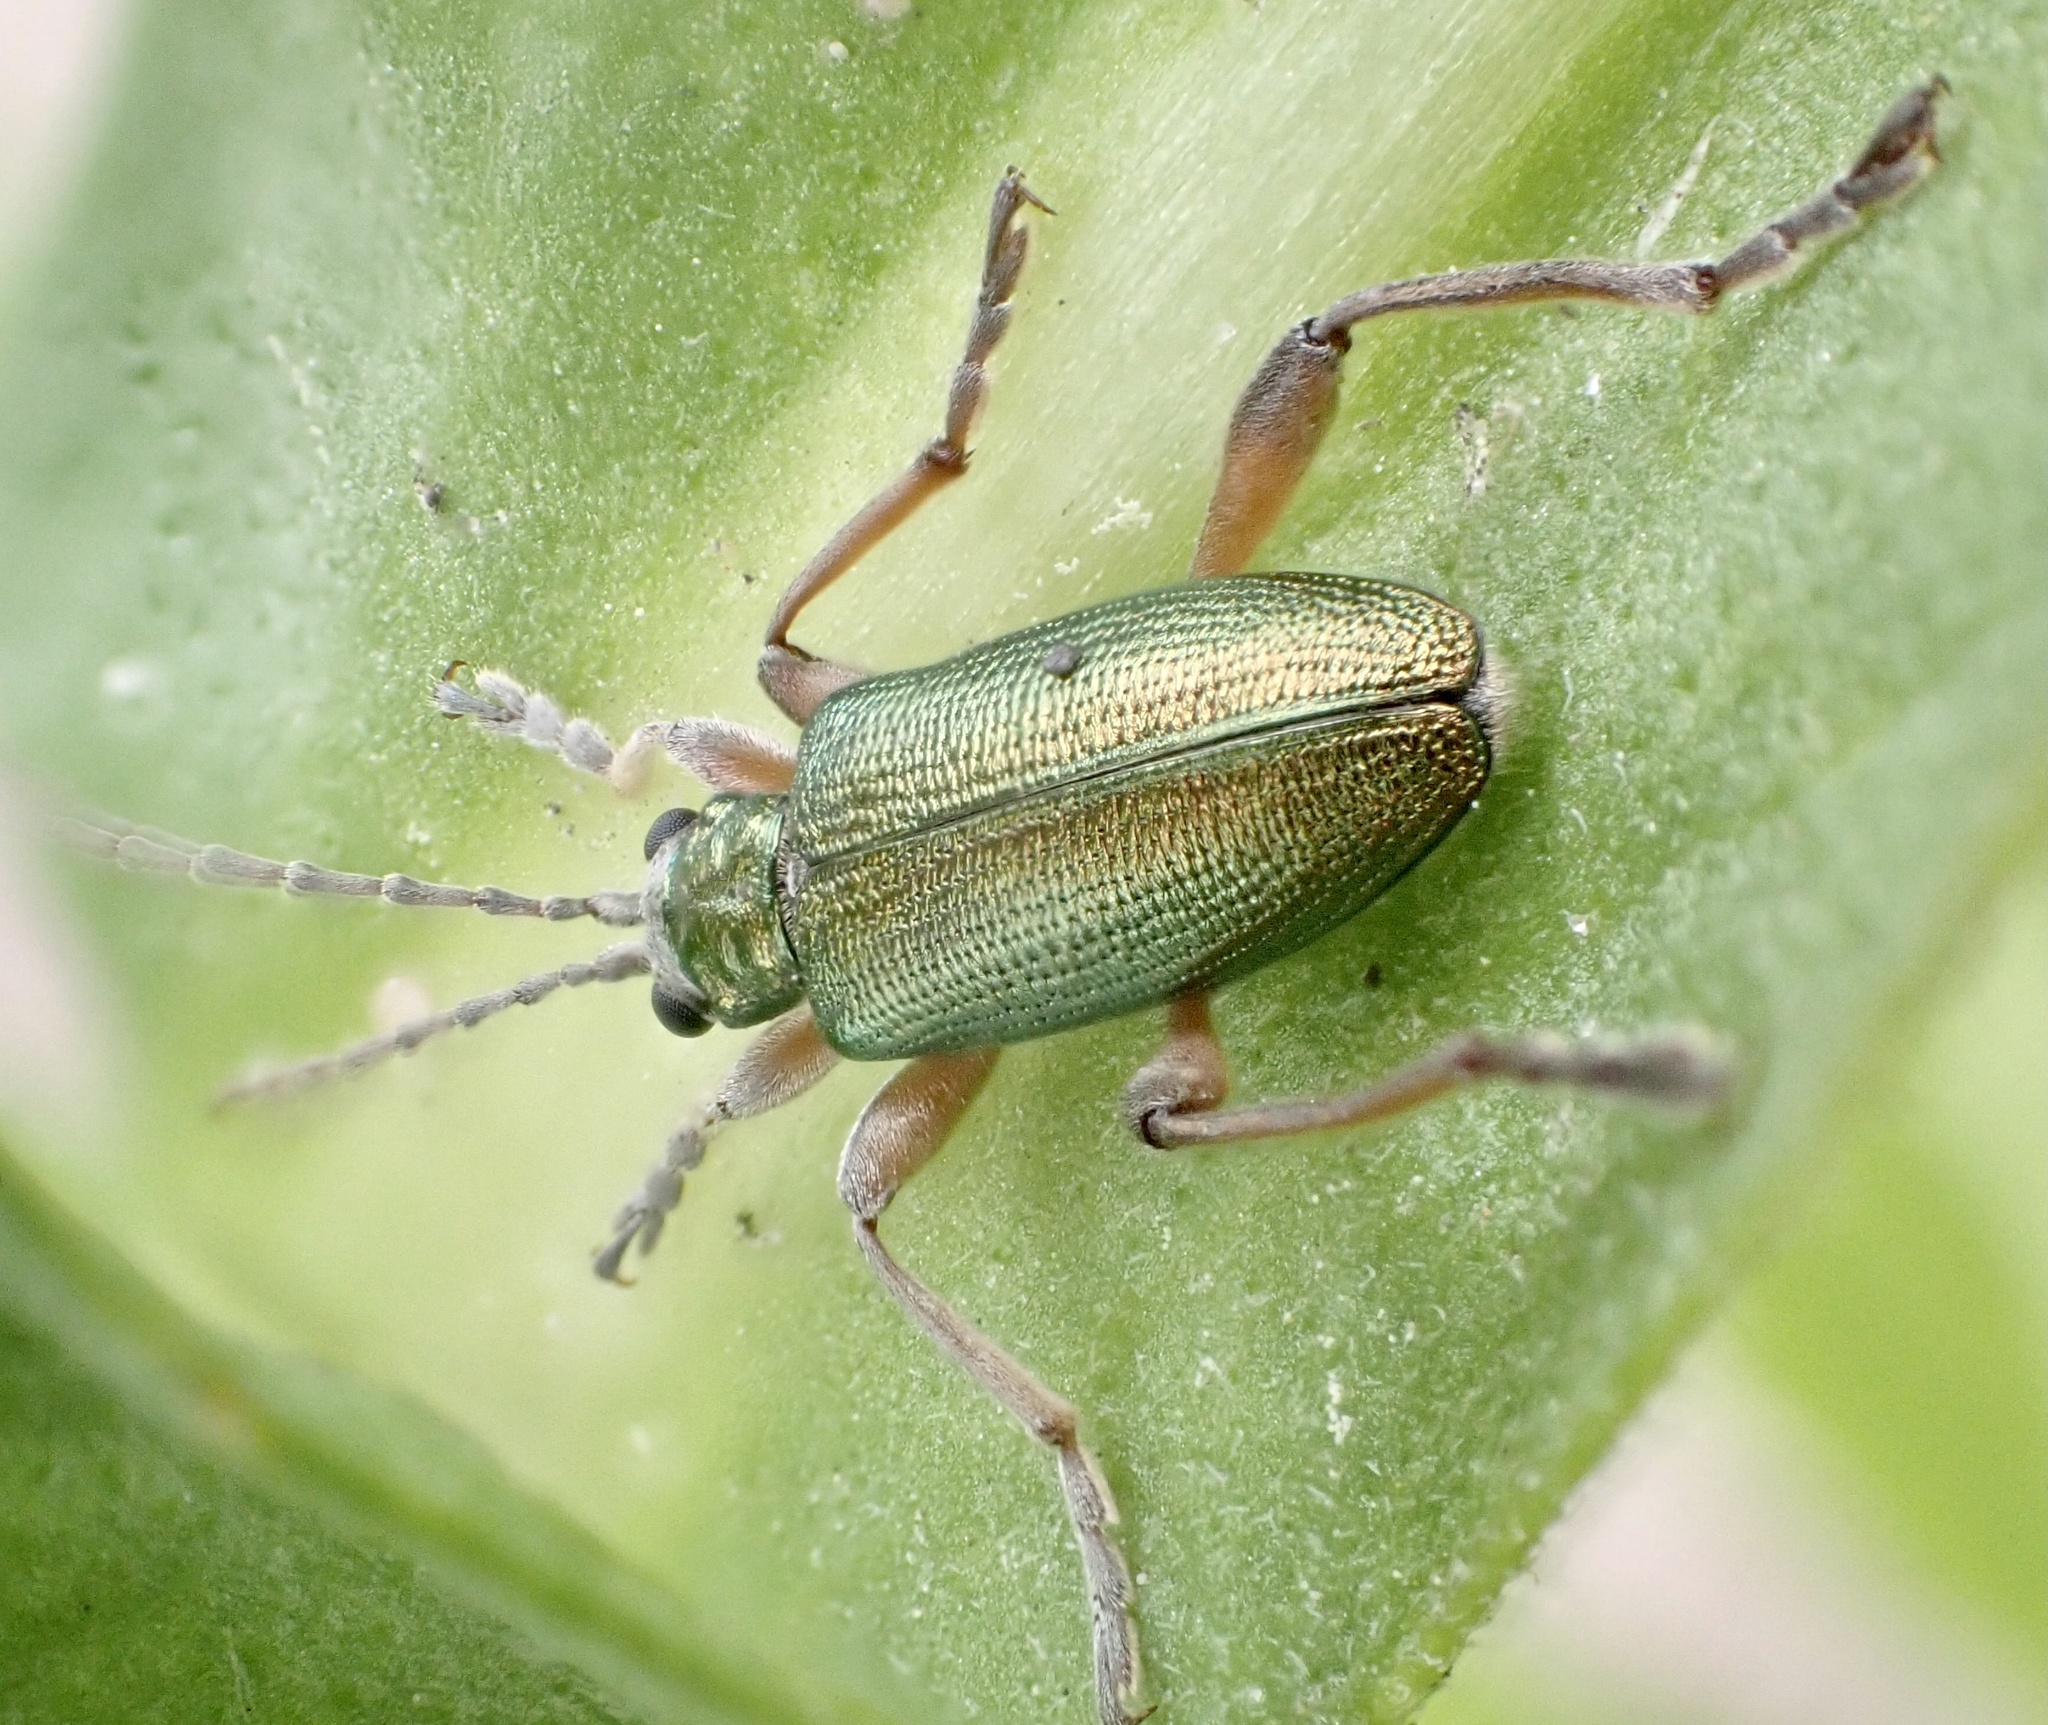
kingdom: Animalia
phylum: Arthropoda
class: Insecta
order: Coleoptera
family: Chrysomelidae
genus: Donacia
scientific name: Donacia clavipes
